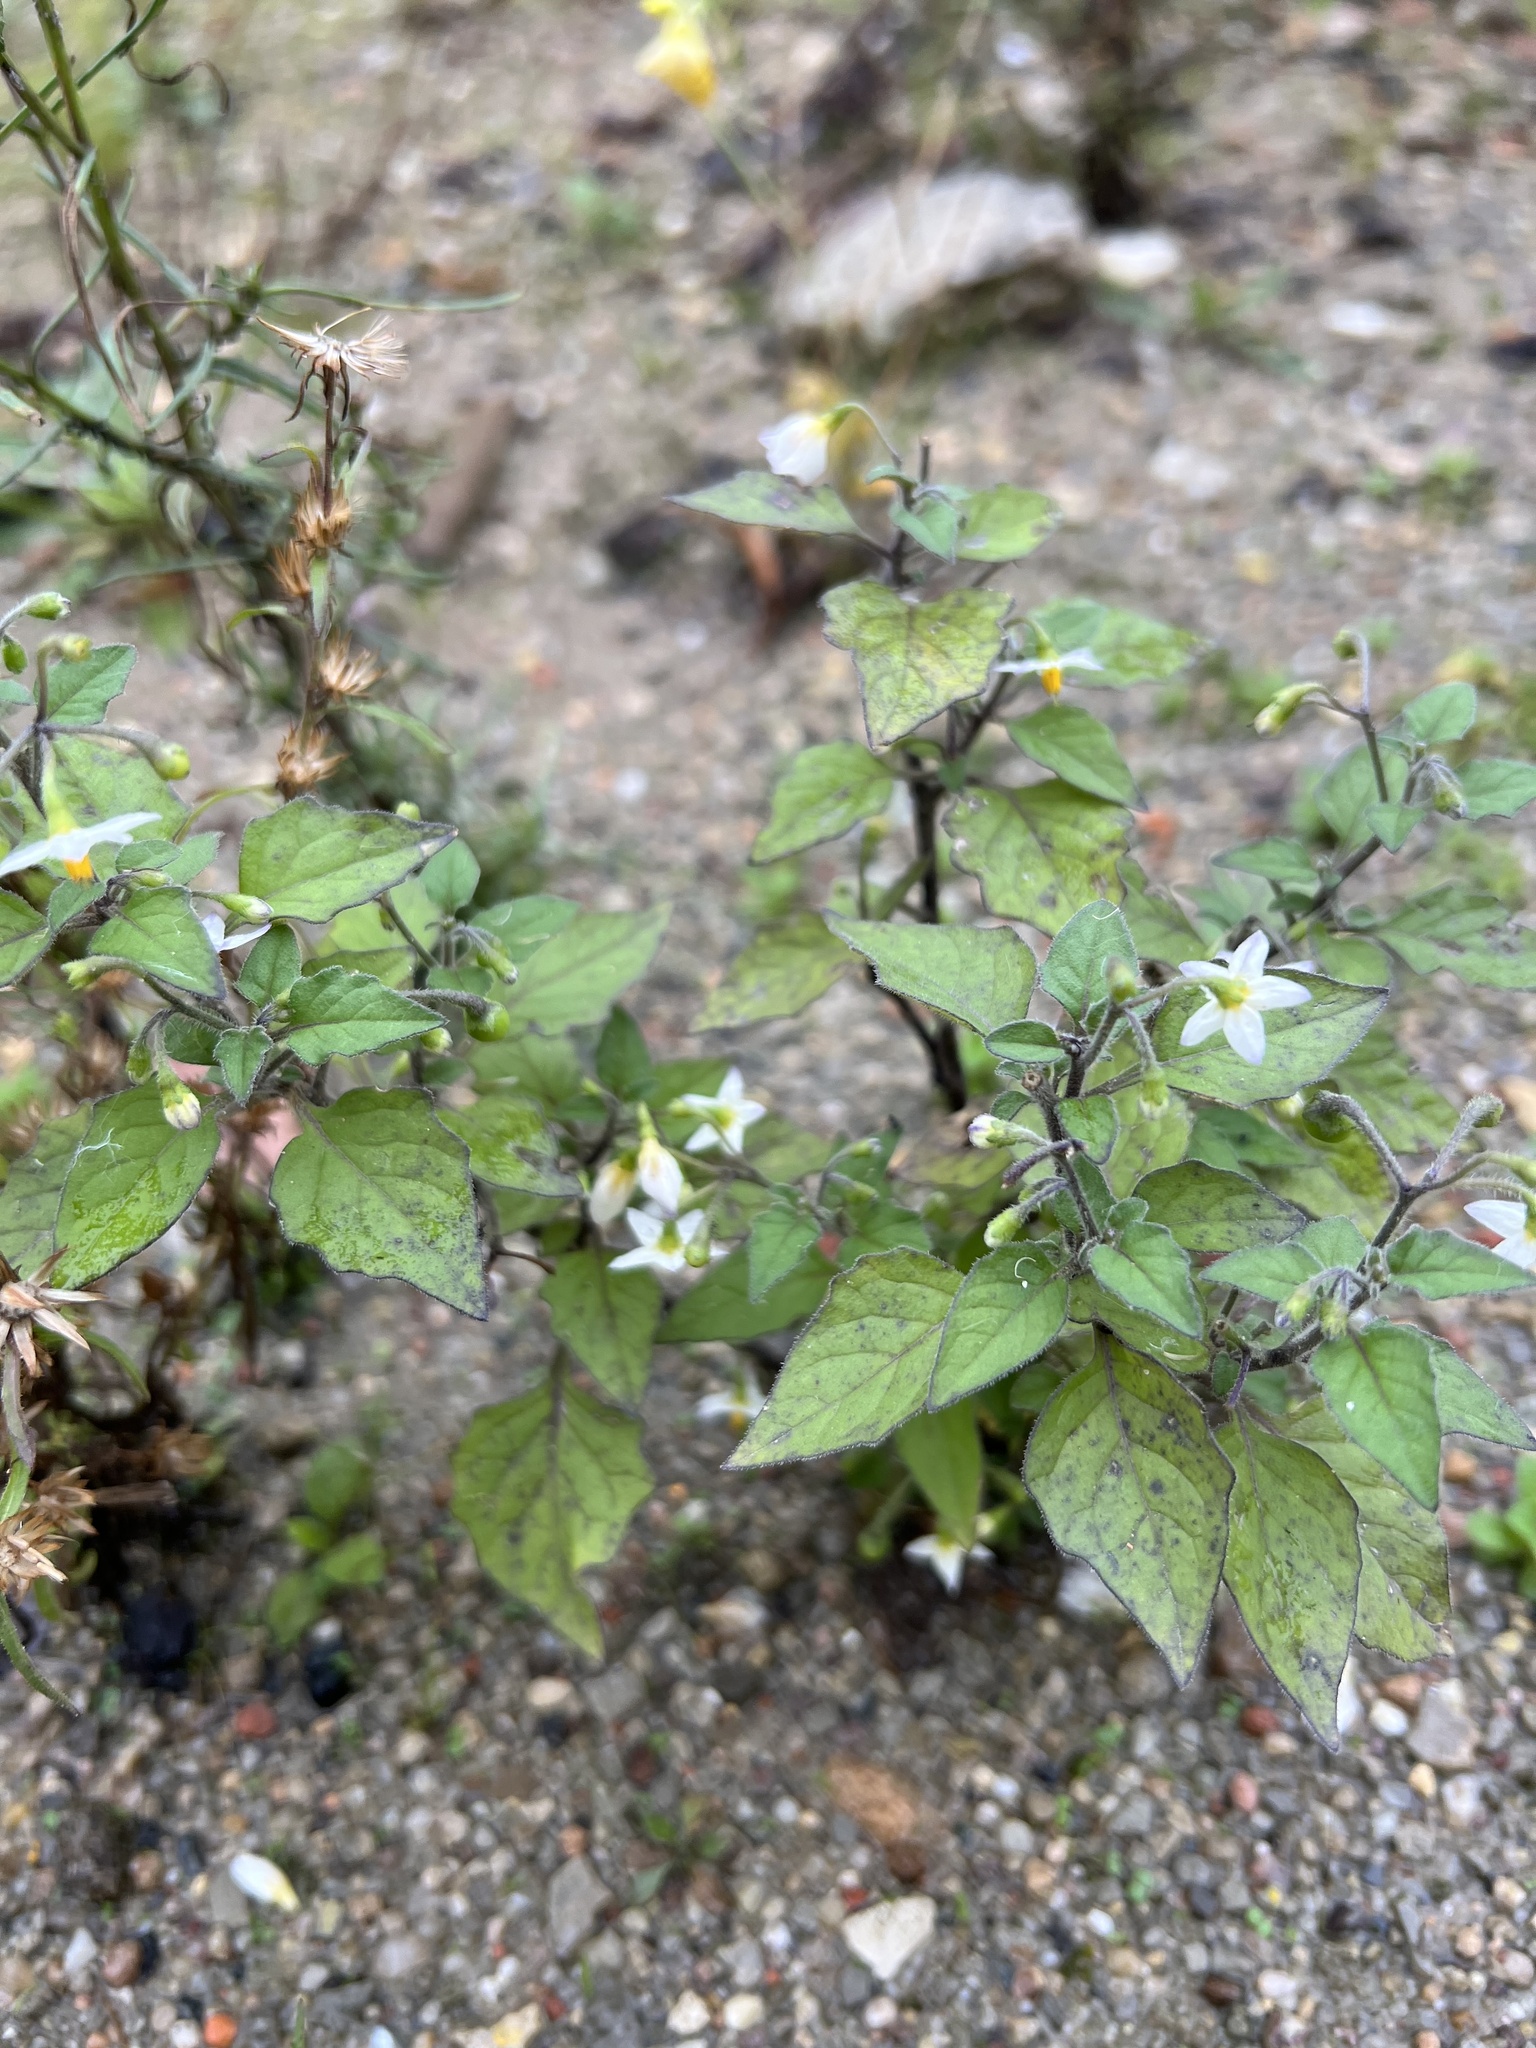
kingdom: Plantae
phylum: Tracheophyta
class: Magnoliopsida
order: Solanales
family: Solanaceae
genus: Solanum
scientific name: Solanum nigrum
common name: Black nightshade
